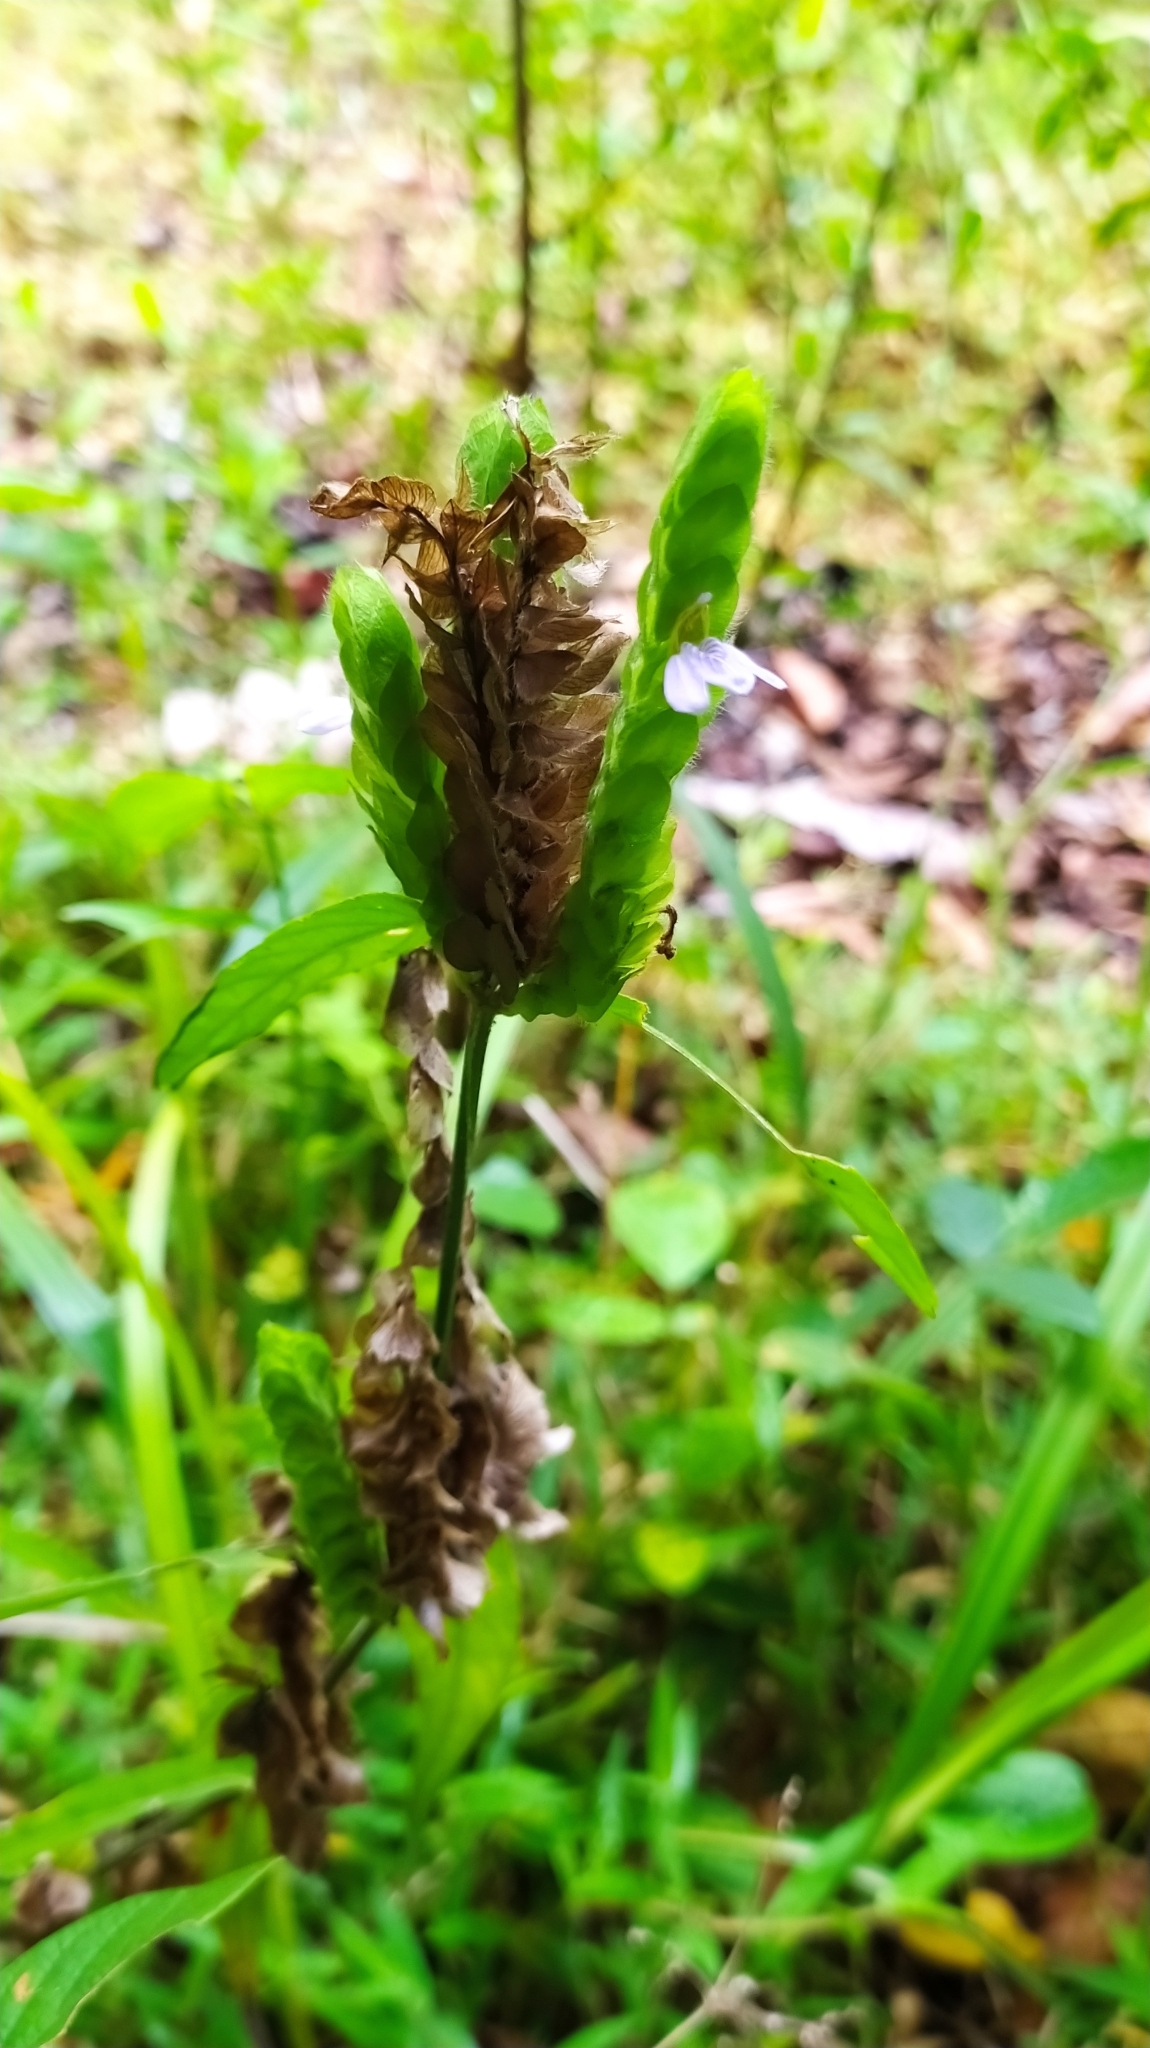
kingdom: Plantae
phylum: Tracheophyta
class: Magnoliopsida
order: Lamiales
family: Acanthaceae
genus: Justicia
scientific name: Justicia polystachya
